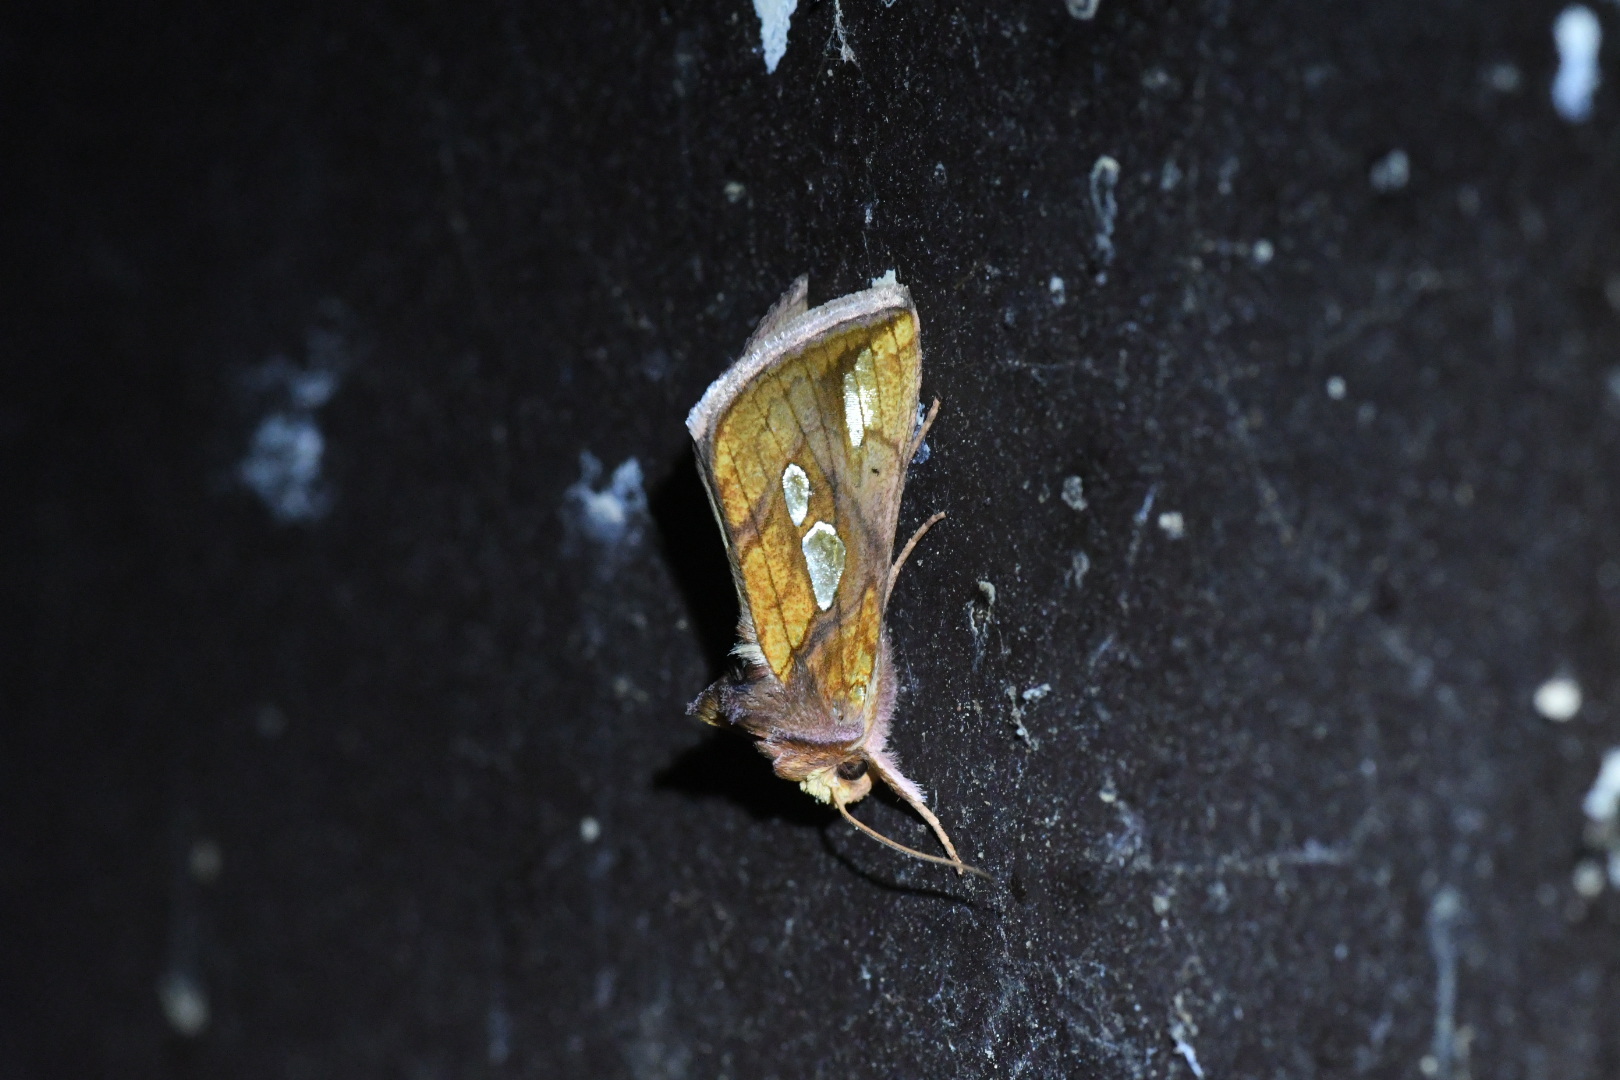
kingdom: Animalia
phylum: Arthropoda
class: Insecta
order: Lepidoptera
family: Noctuidae
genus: Plusia
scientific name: Plusia putnami
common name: Lempke's gold spot
